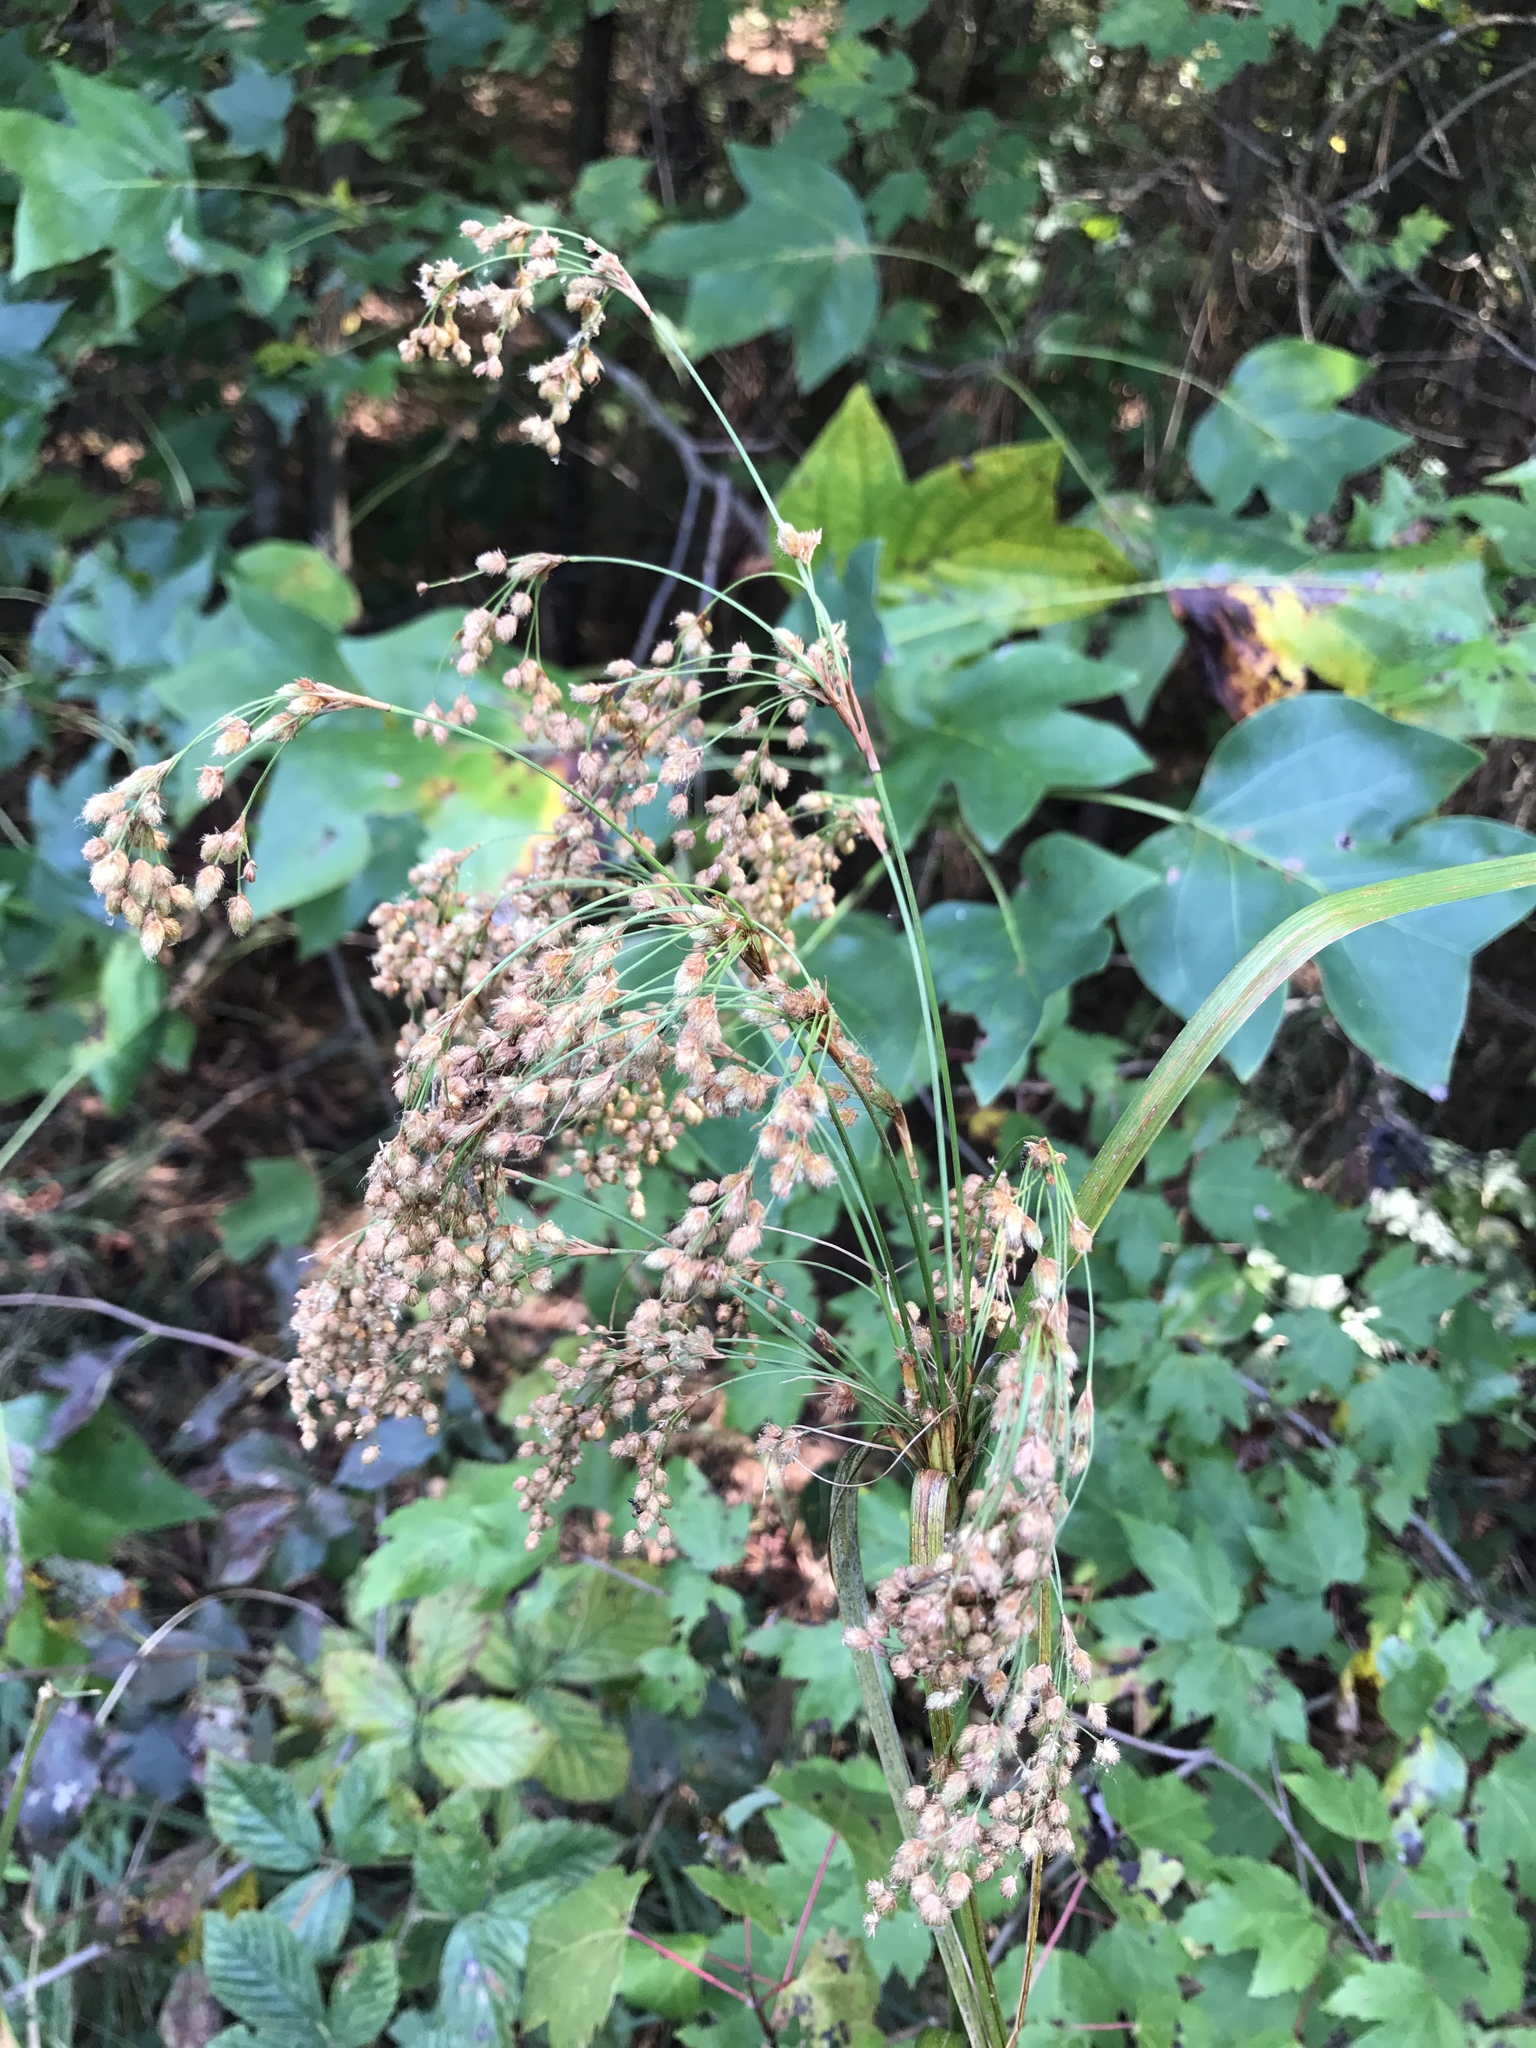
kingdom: Plantae
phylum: Tracheophyta
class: Liliopsida
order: Poales
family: Cyperaceae
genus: Scirpus
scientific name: Scirpus cyperinus
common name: Black-sheathed bulrush
